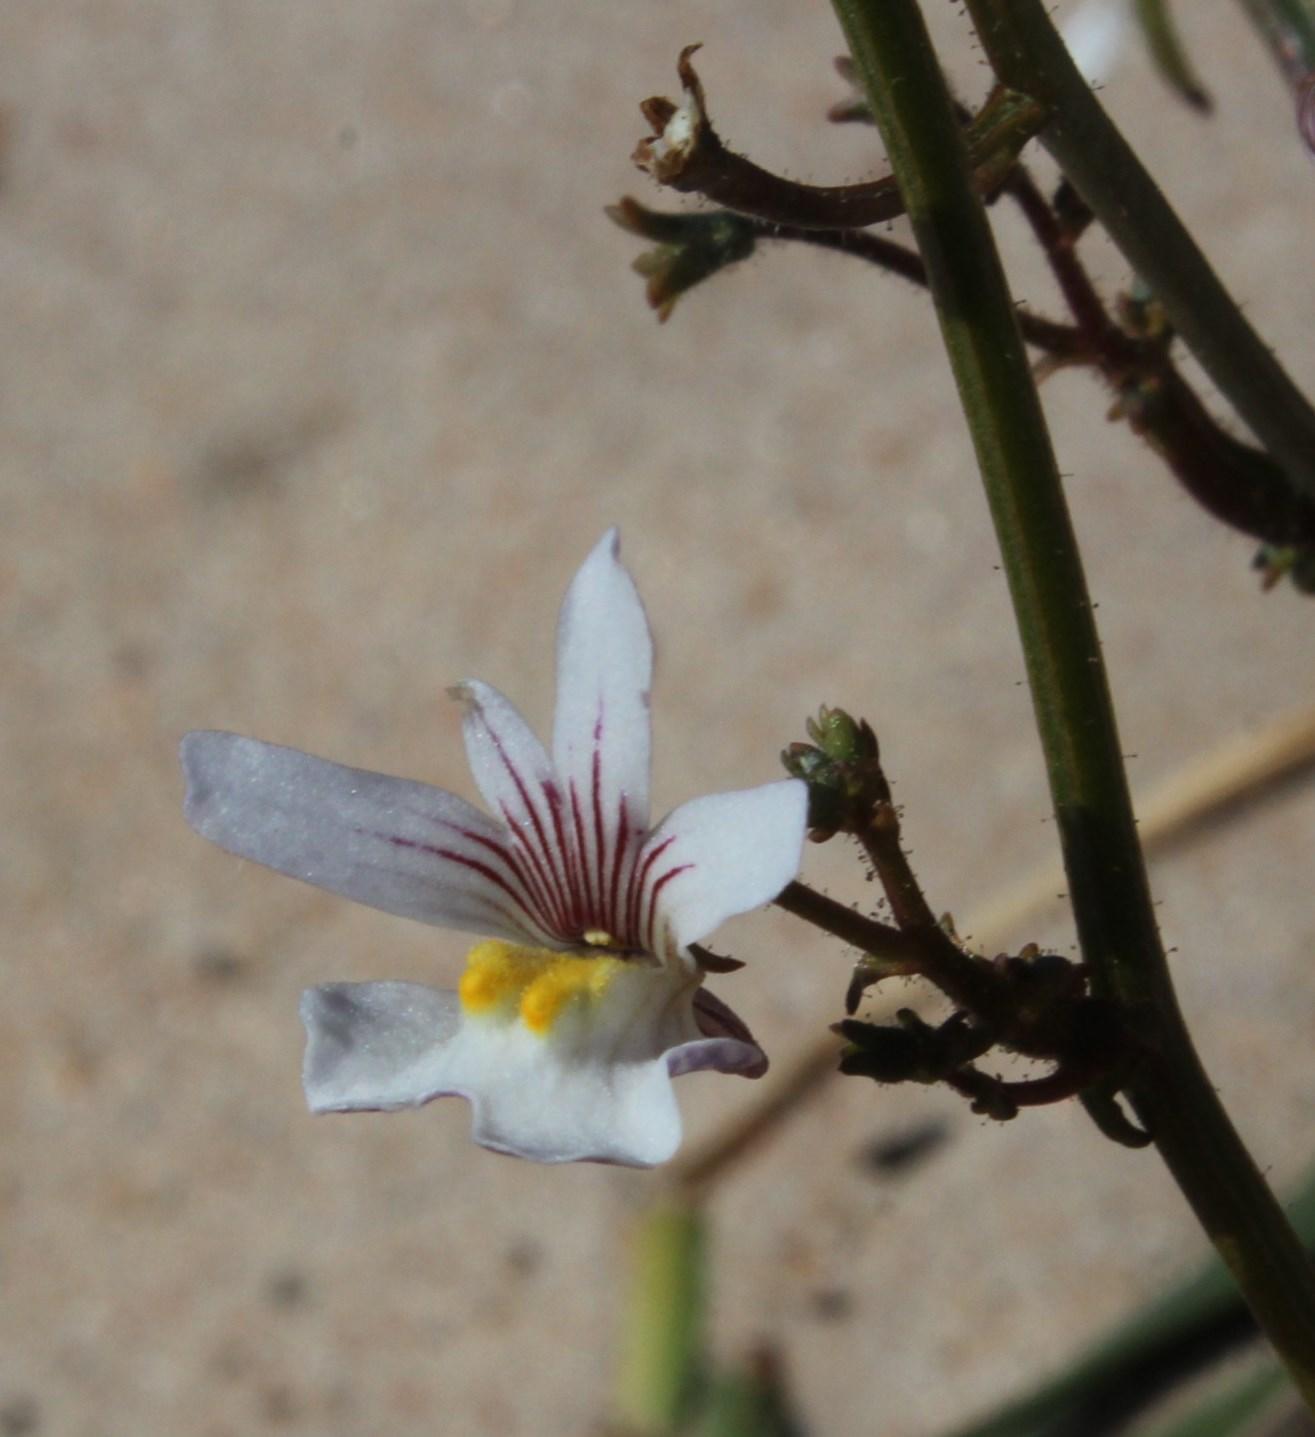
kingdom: Plantae
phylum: Tracheophyta
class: Magnoliopsida
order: Lamiales
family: Scrophulariaceae
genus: Nemesia
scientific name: Nemesia bicornis
